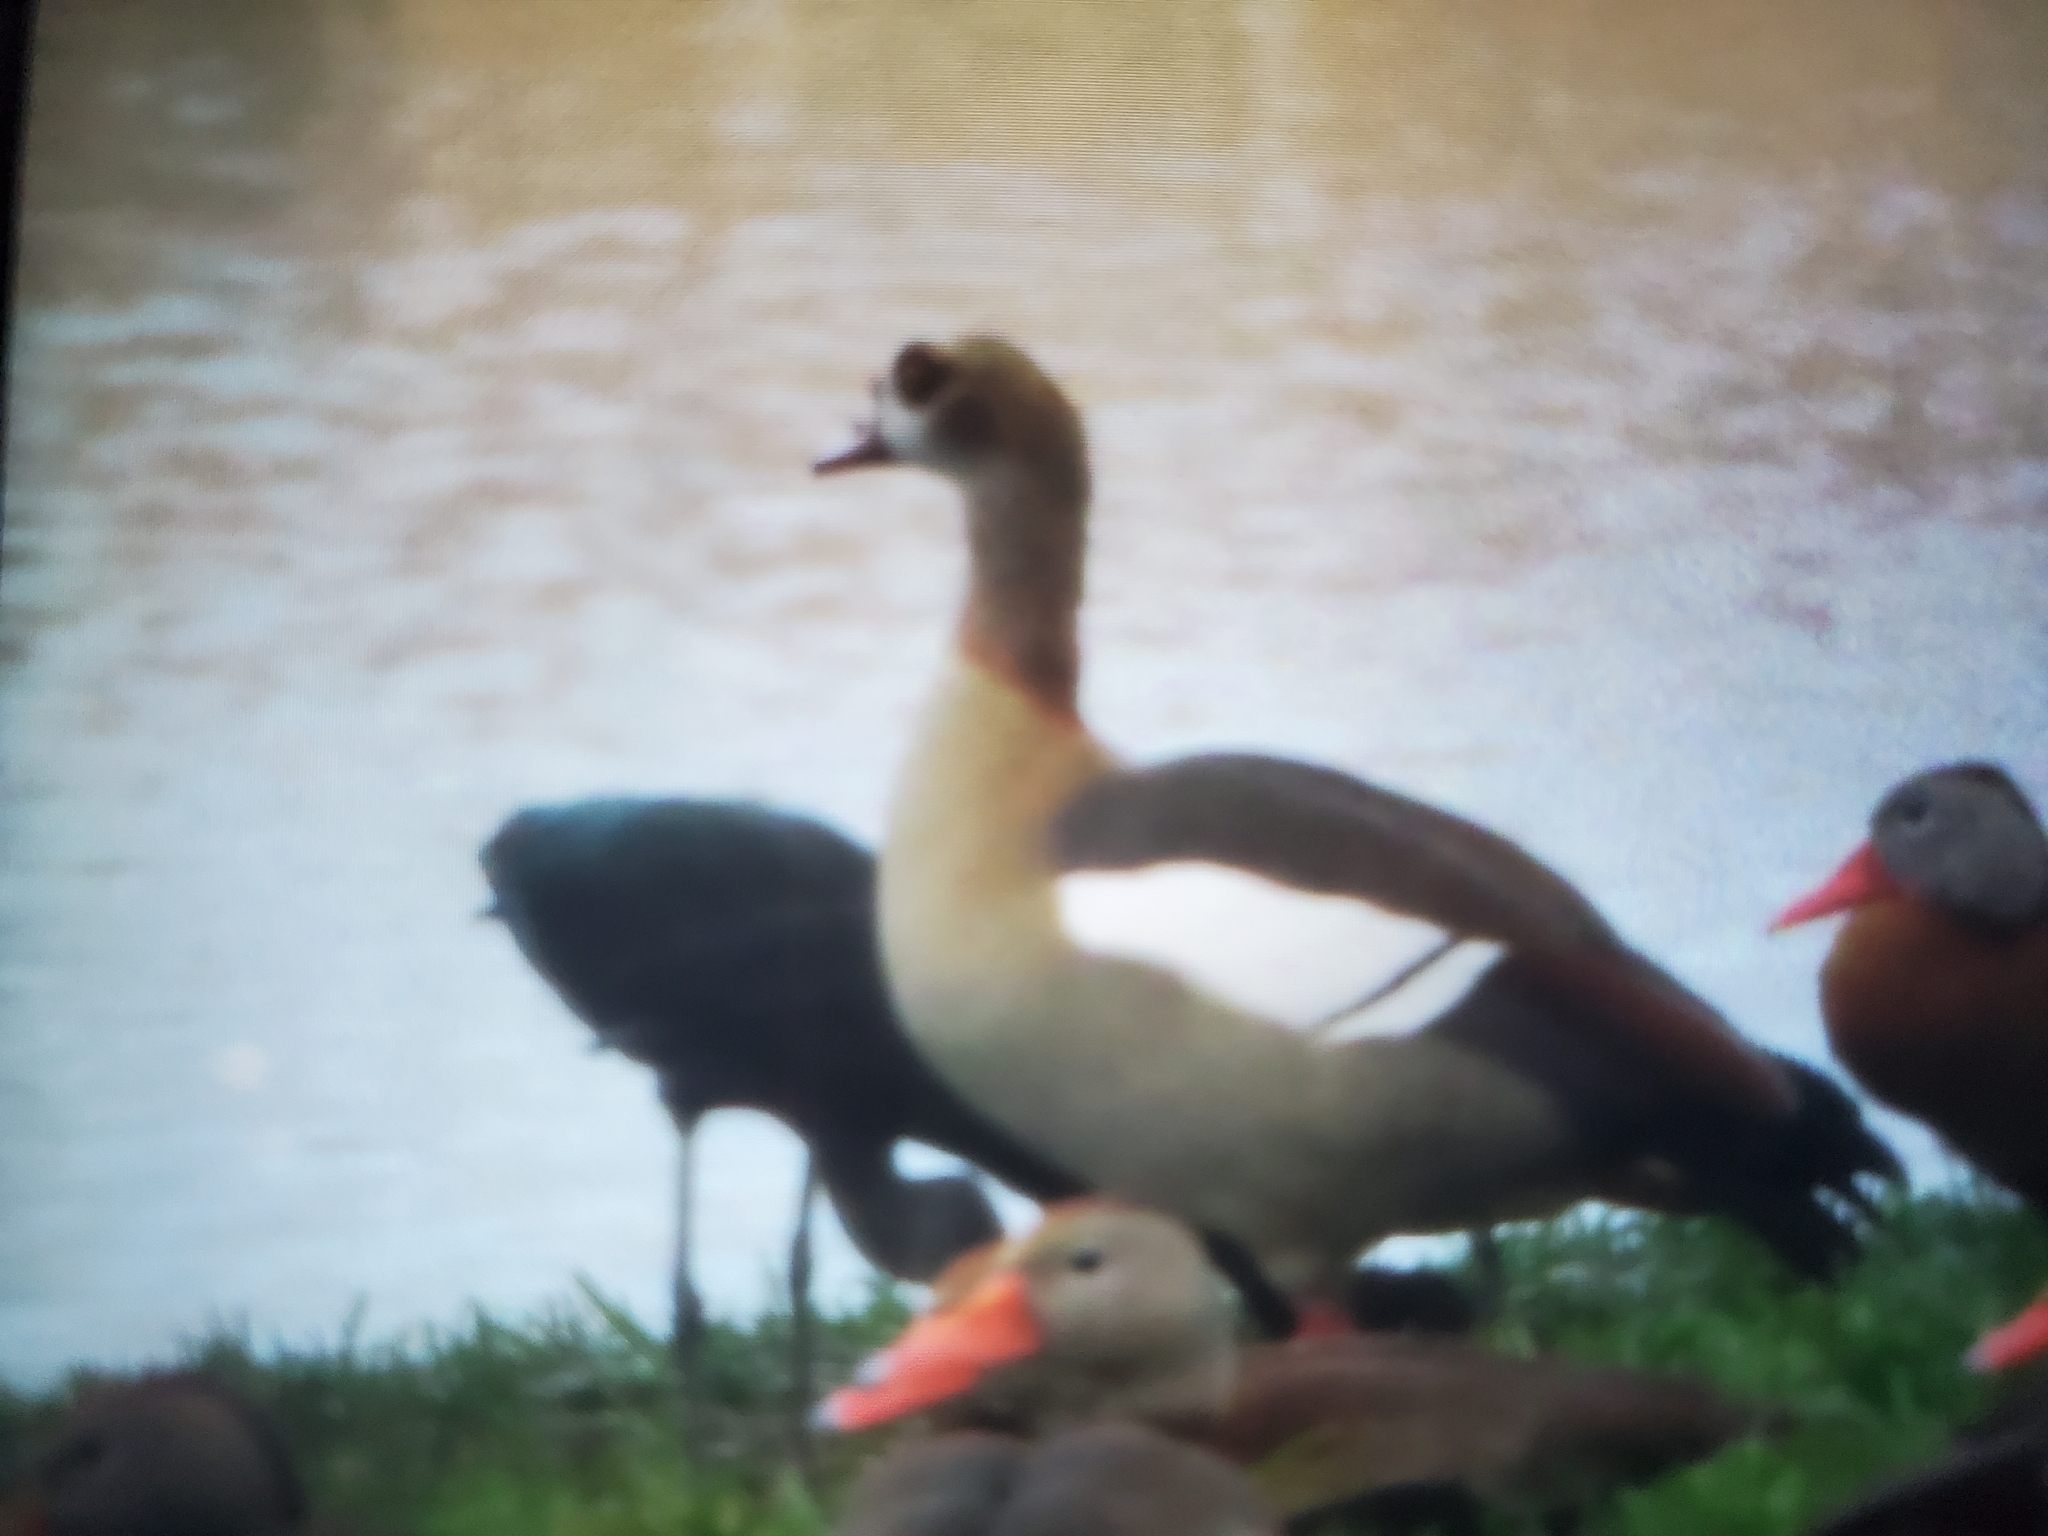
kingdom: Animalia
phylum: Chordata
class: Aves
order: Anseriformes
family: Anatidae
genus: Alopochen
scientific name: Alopochen aegyptiaca
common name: Egyptian goose
